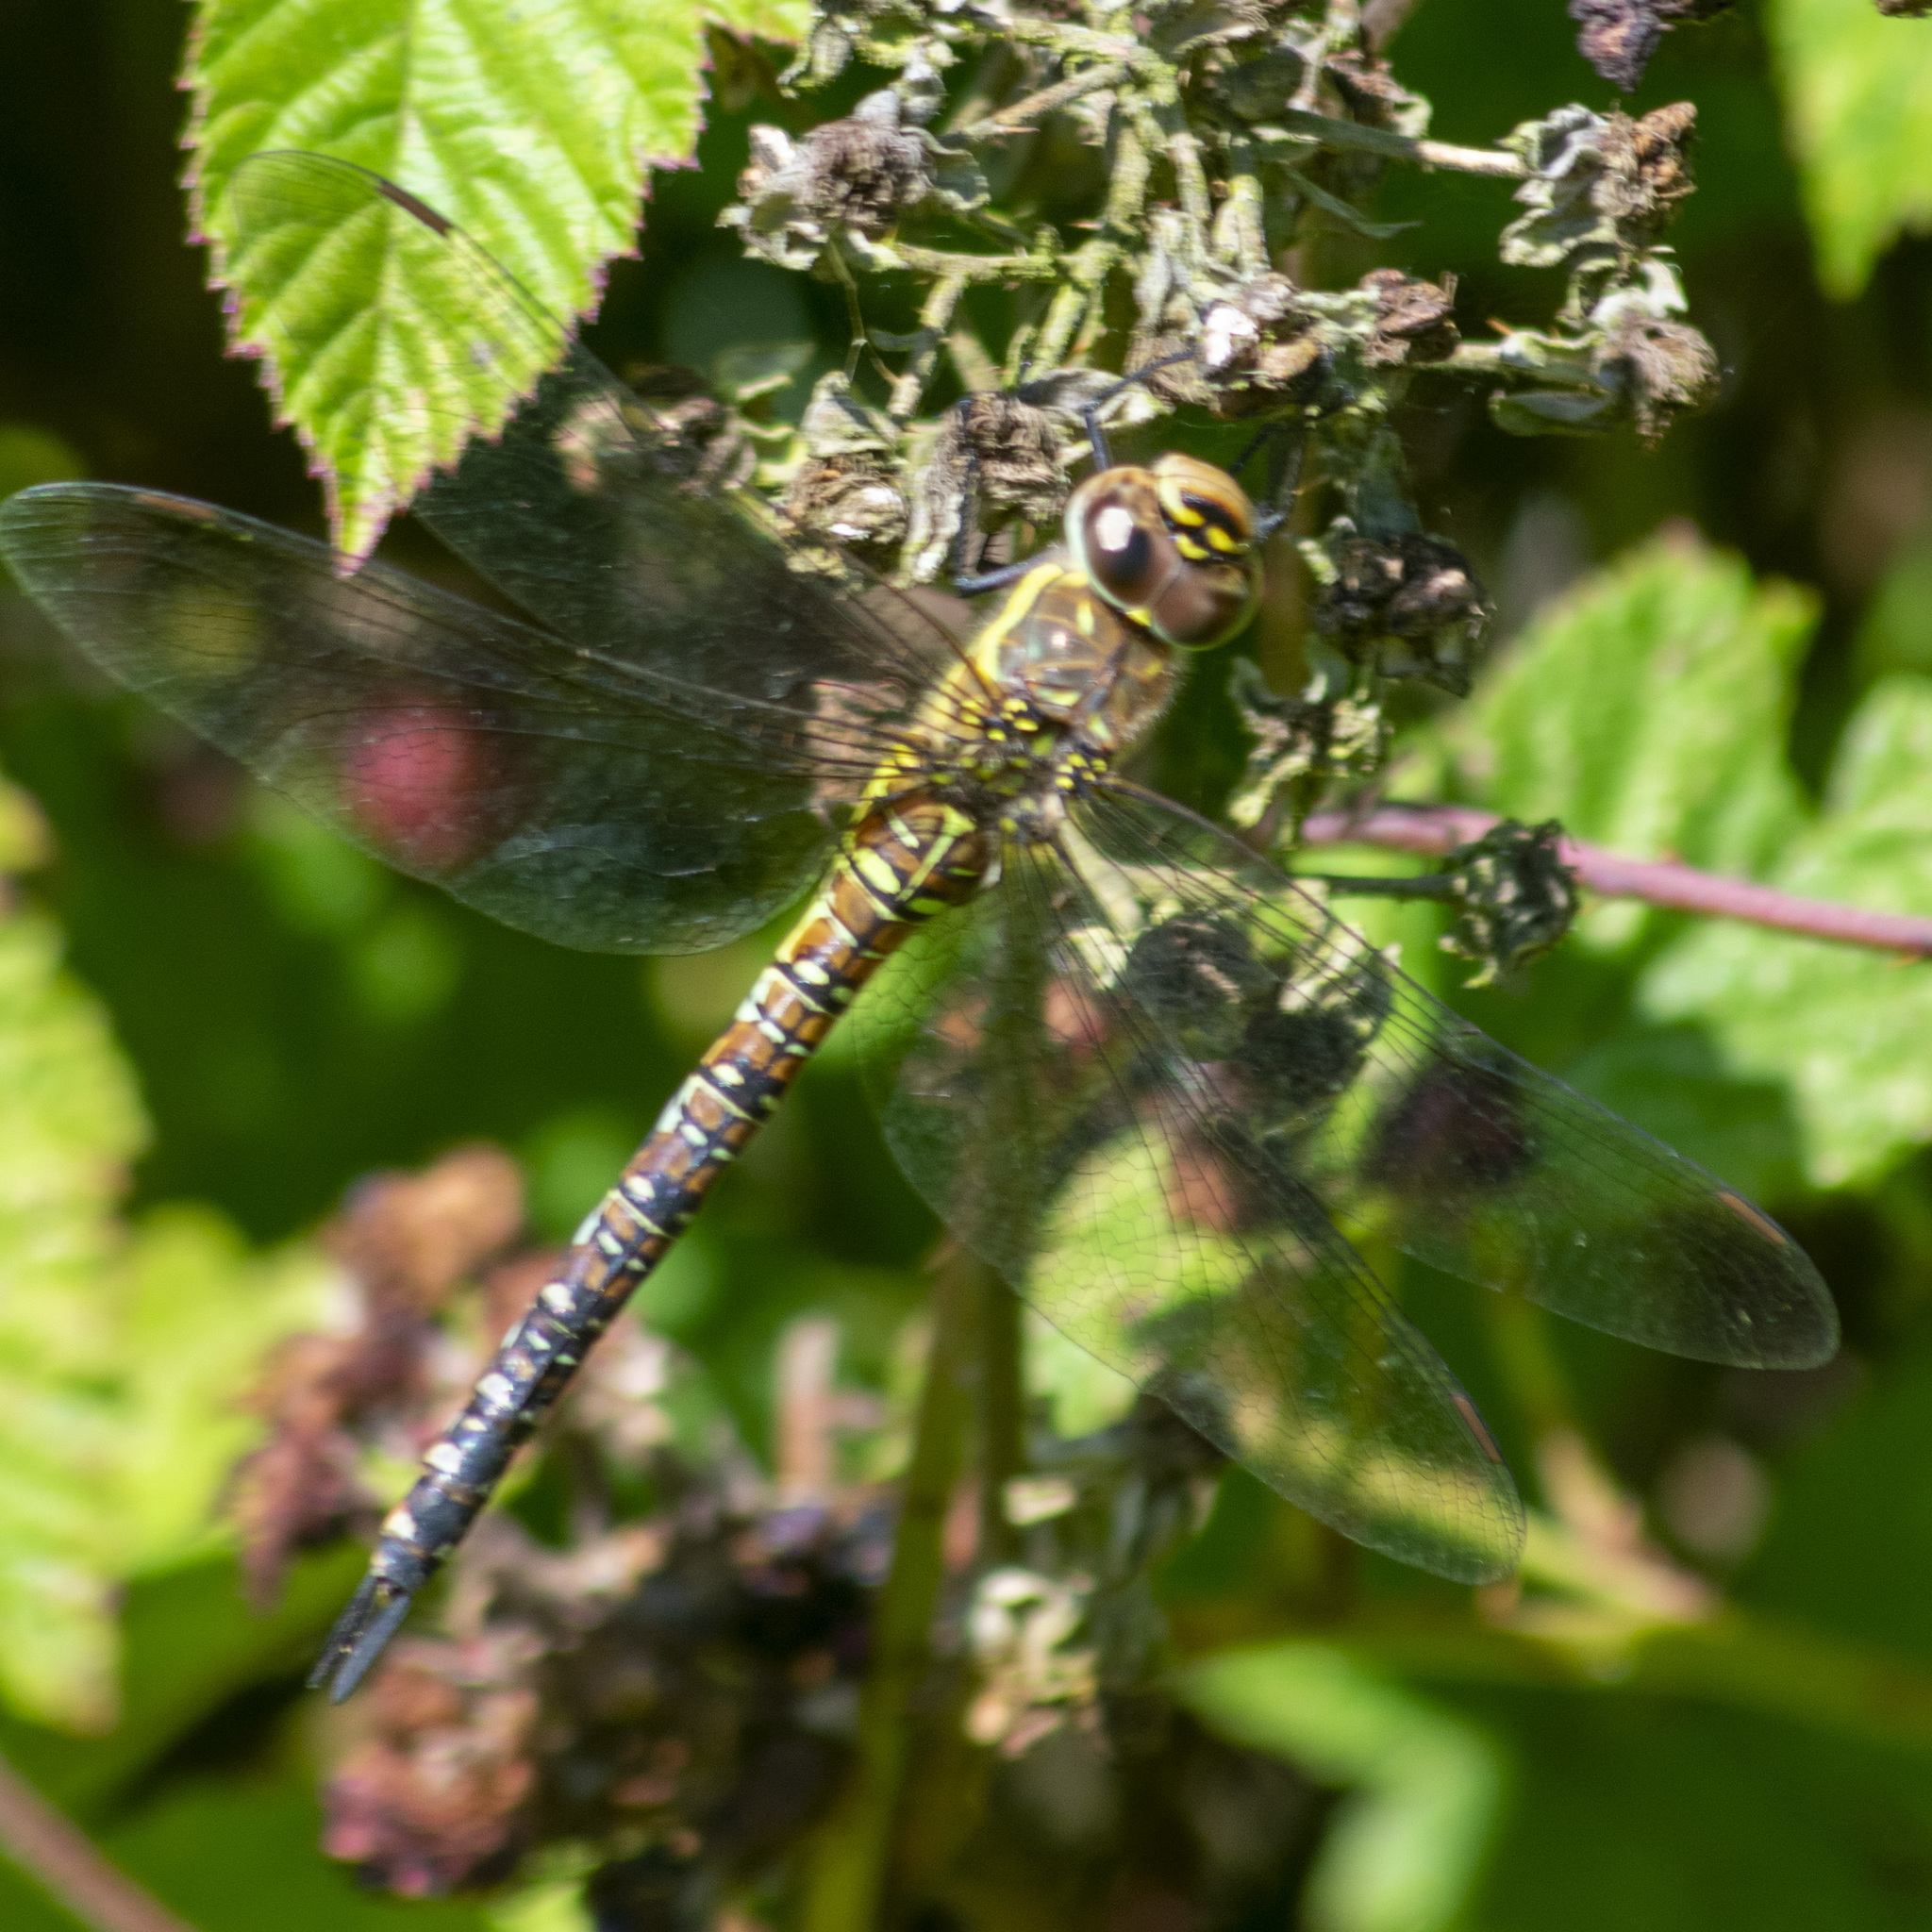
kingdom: Animalia
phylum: Arthropoda
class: Insecta
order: Odonata
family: Aeshnidae
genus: Aeshna
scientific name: Aeshna mixta
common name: Migrant hawker
